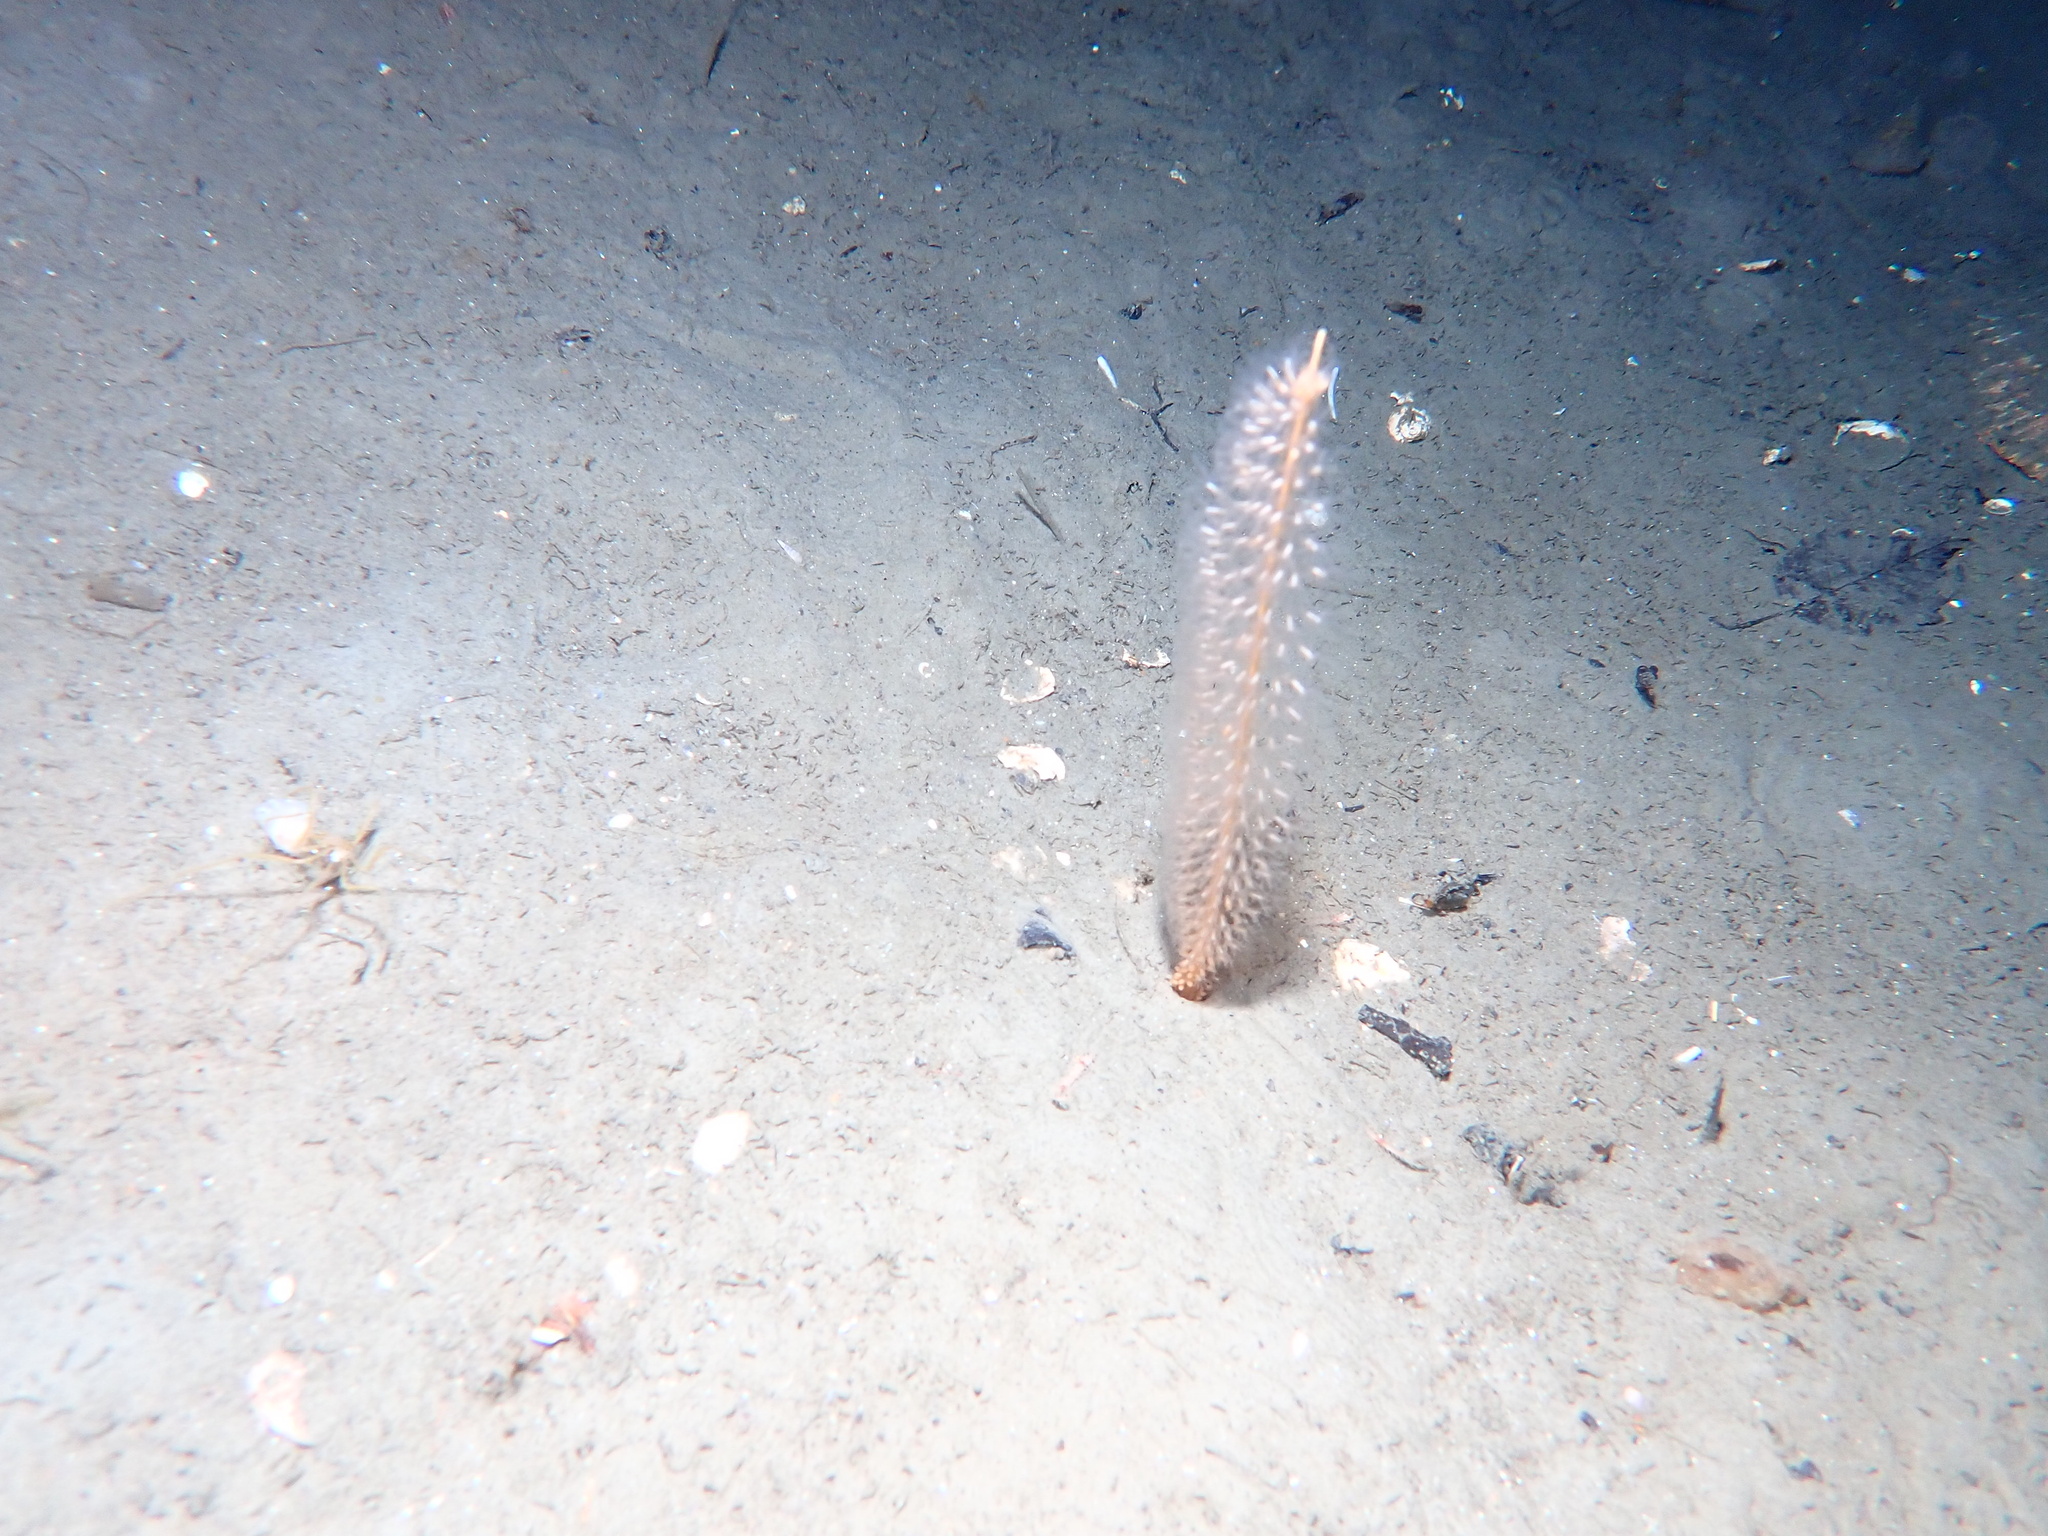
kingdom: Animalia
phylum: Cnidaria
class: Anthozoa
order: Scleralcyonacea
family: Virgulariidae
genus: Virgularia
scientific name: Virgularia tuberculata
